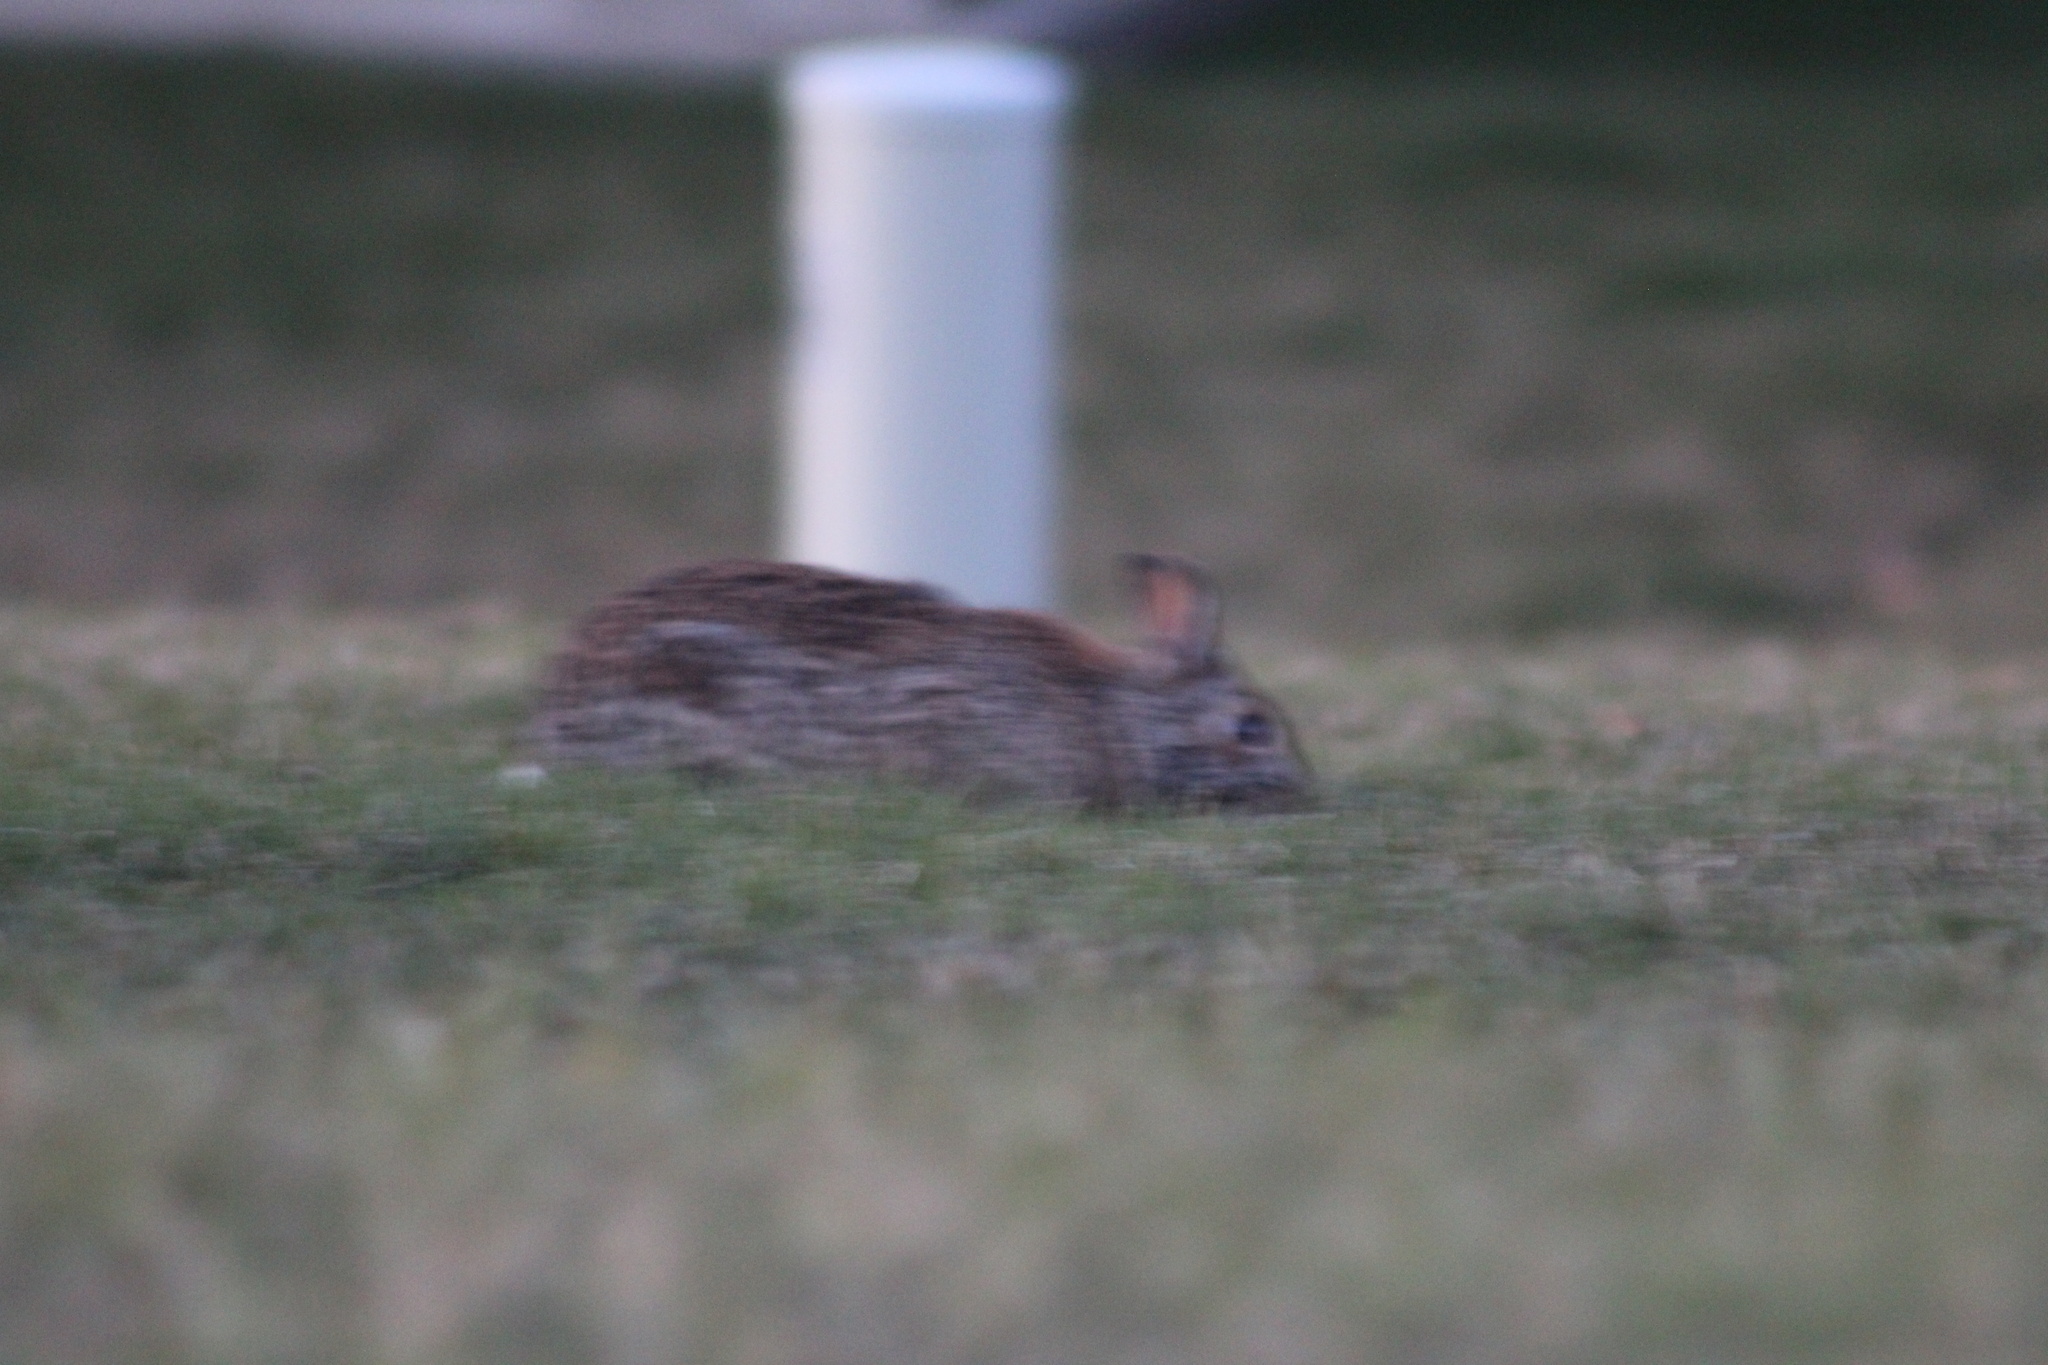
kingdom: Animalia
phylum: Chordata
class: Mammalia
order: Lagomorpha
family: Leporidae
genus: Sylvilagus
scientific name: Sylvilagus floridanus
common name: Eastern cottontail
